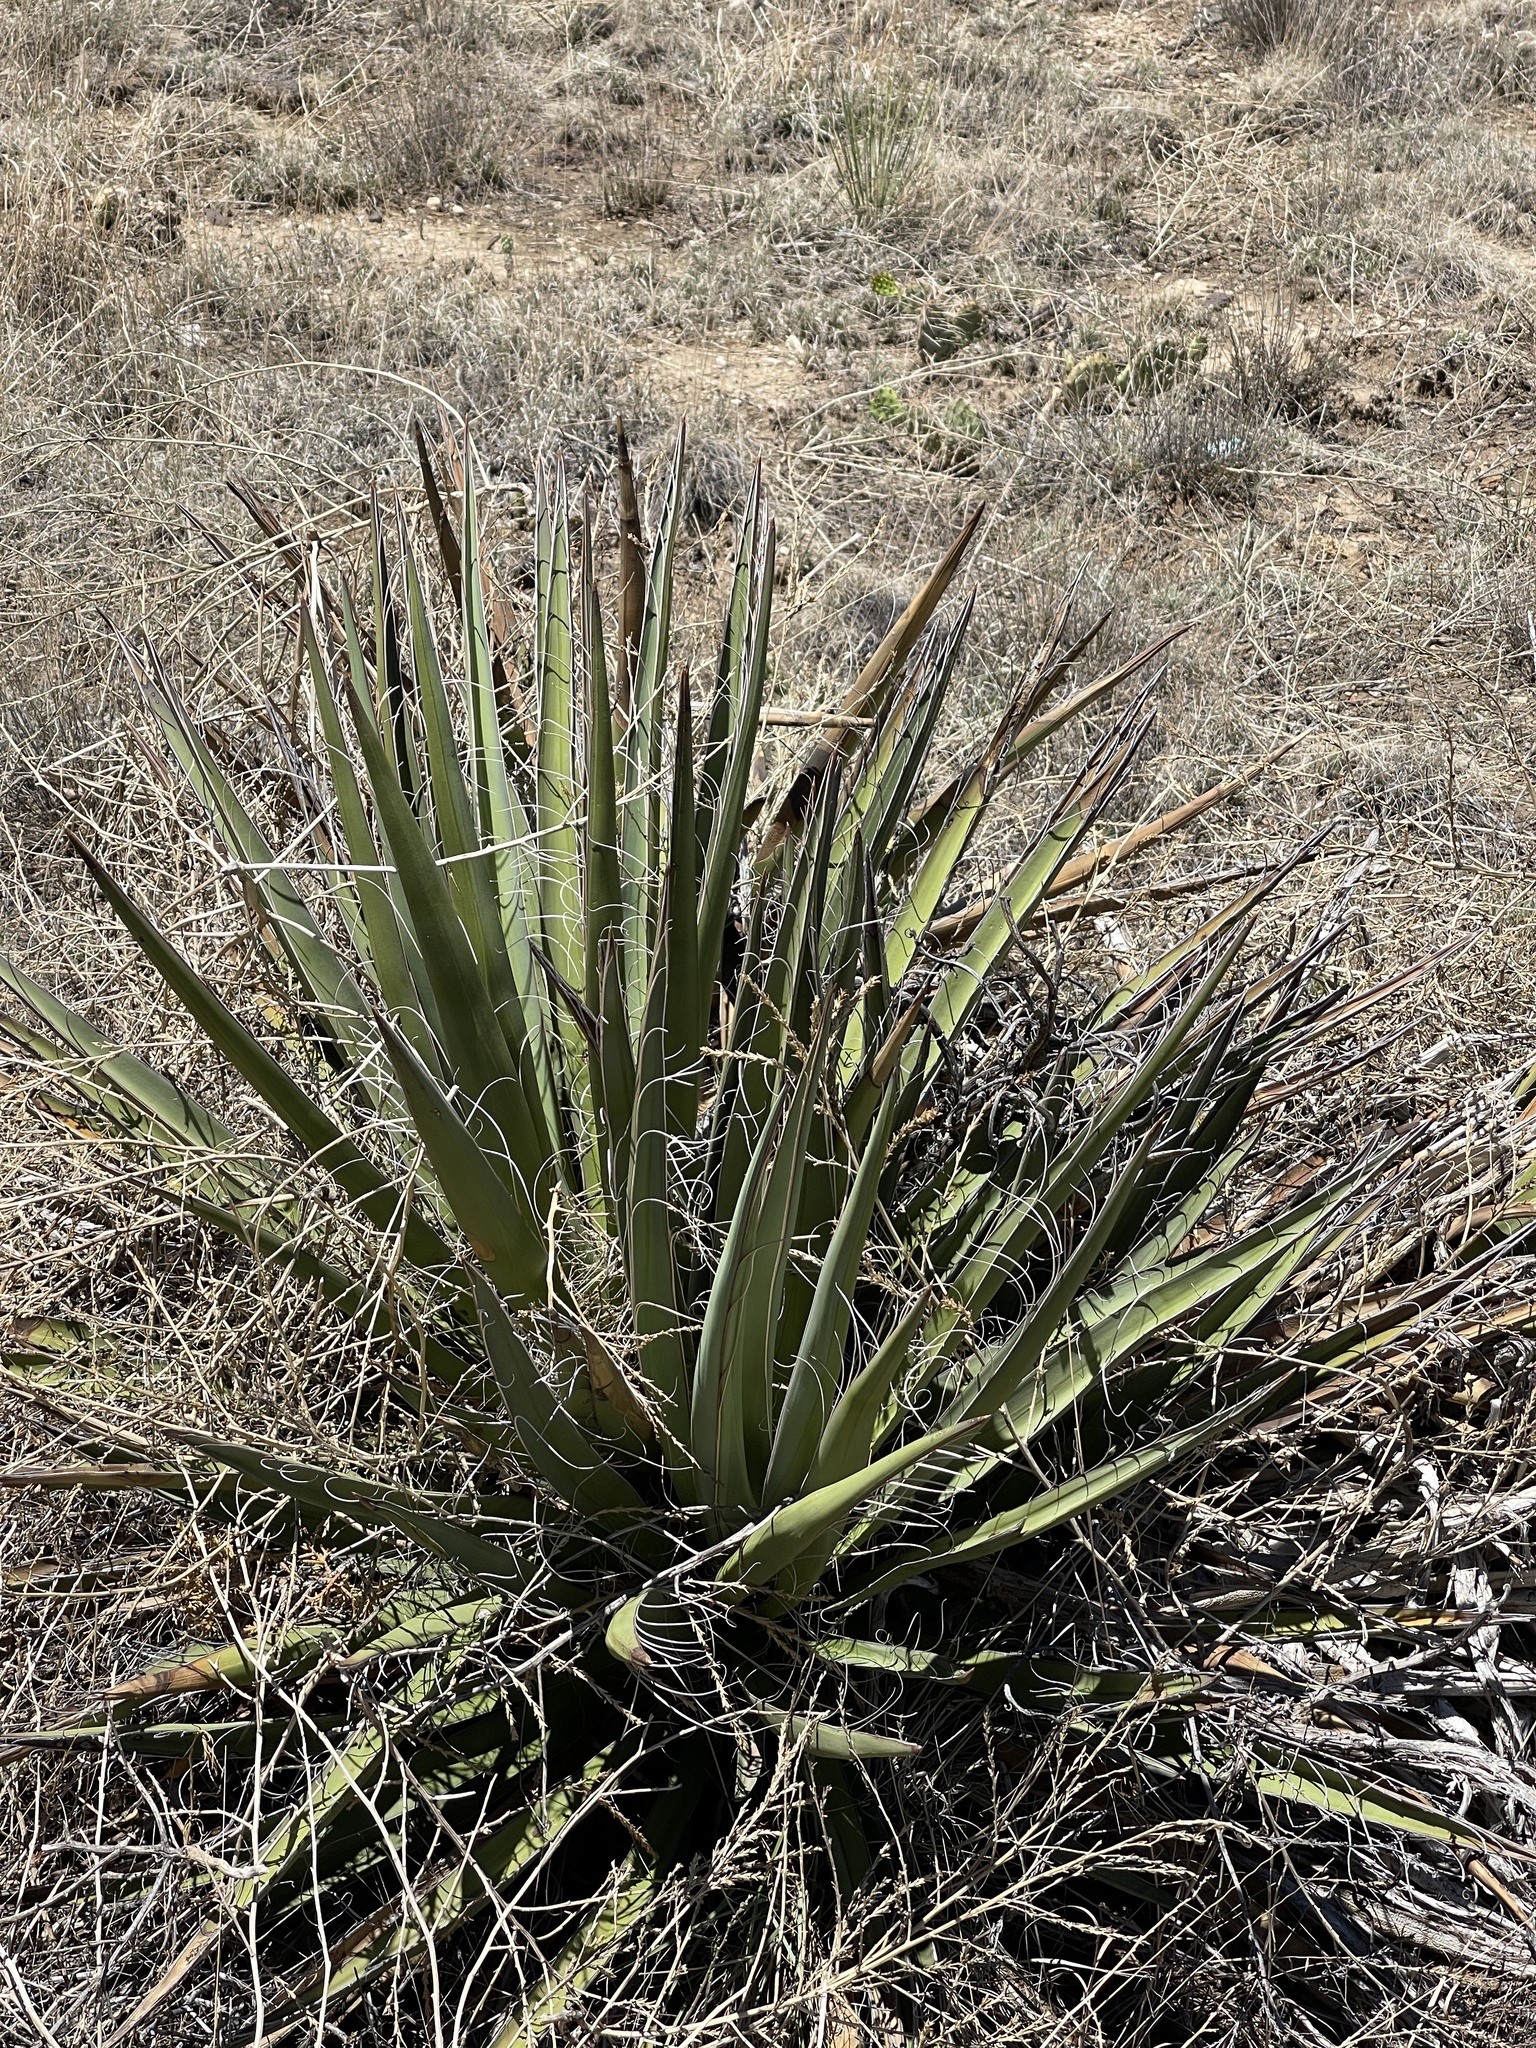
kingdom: Plantae
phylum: Tracheophyta
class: Liliopsida
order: Asparagales
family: Asparagaceae
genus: Yucca
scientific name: Yucca baccata
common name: Banana yucca
